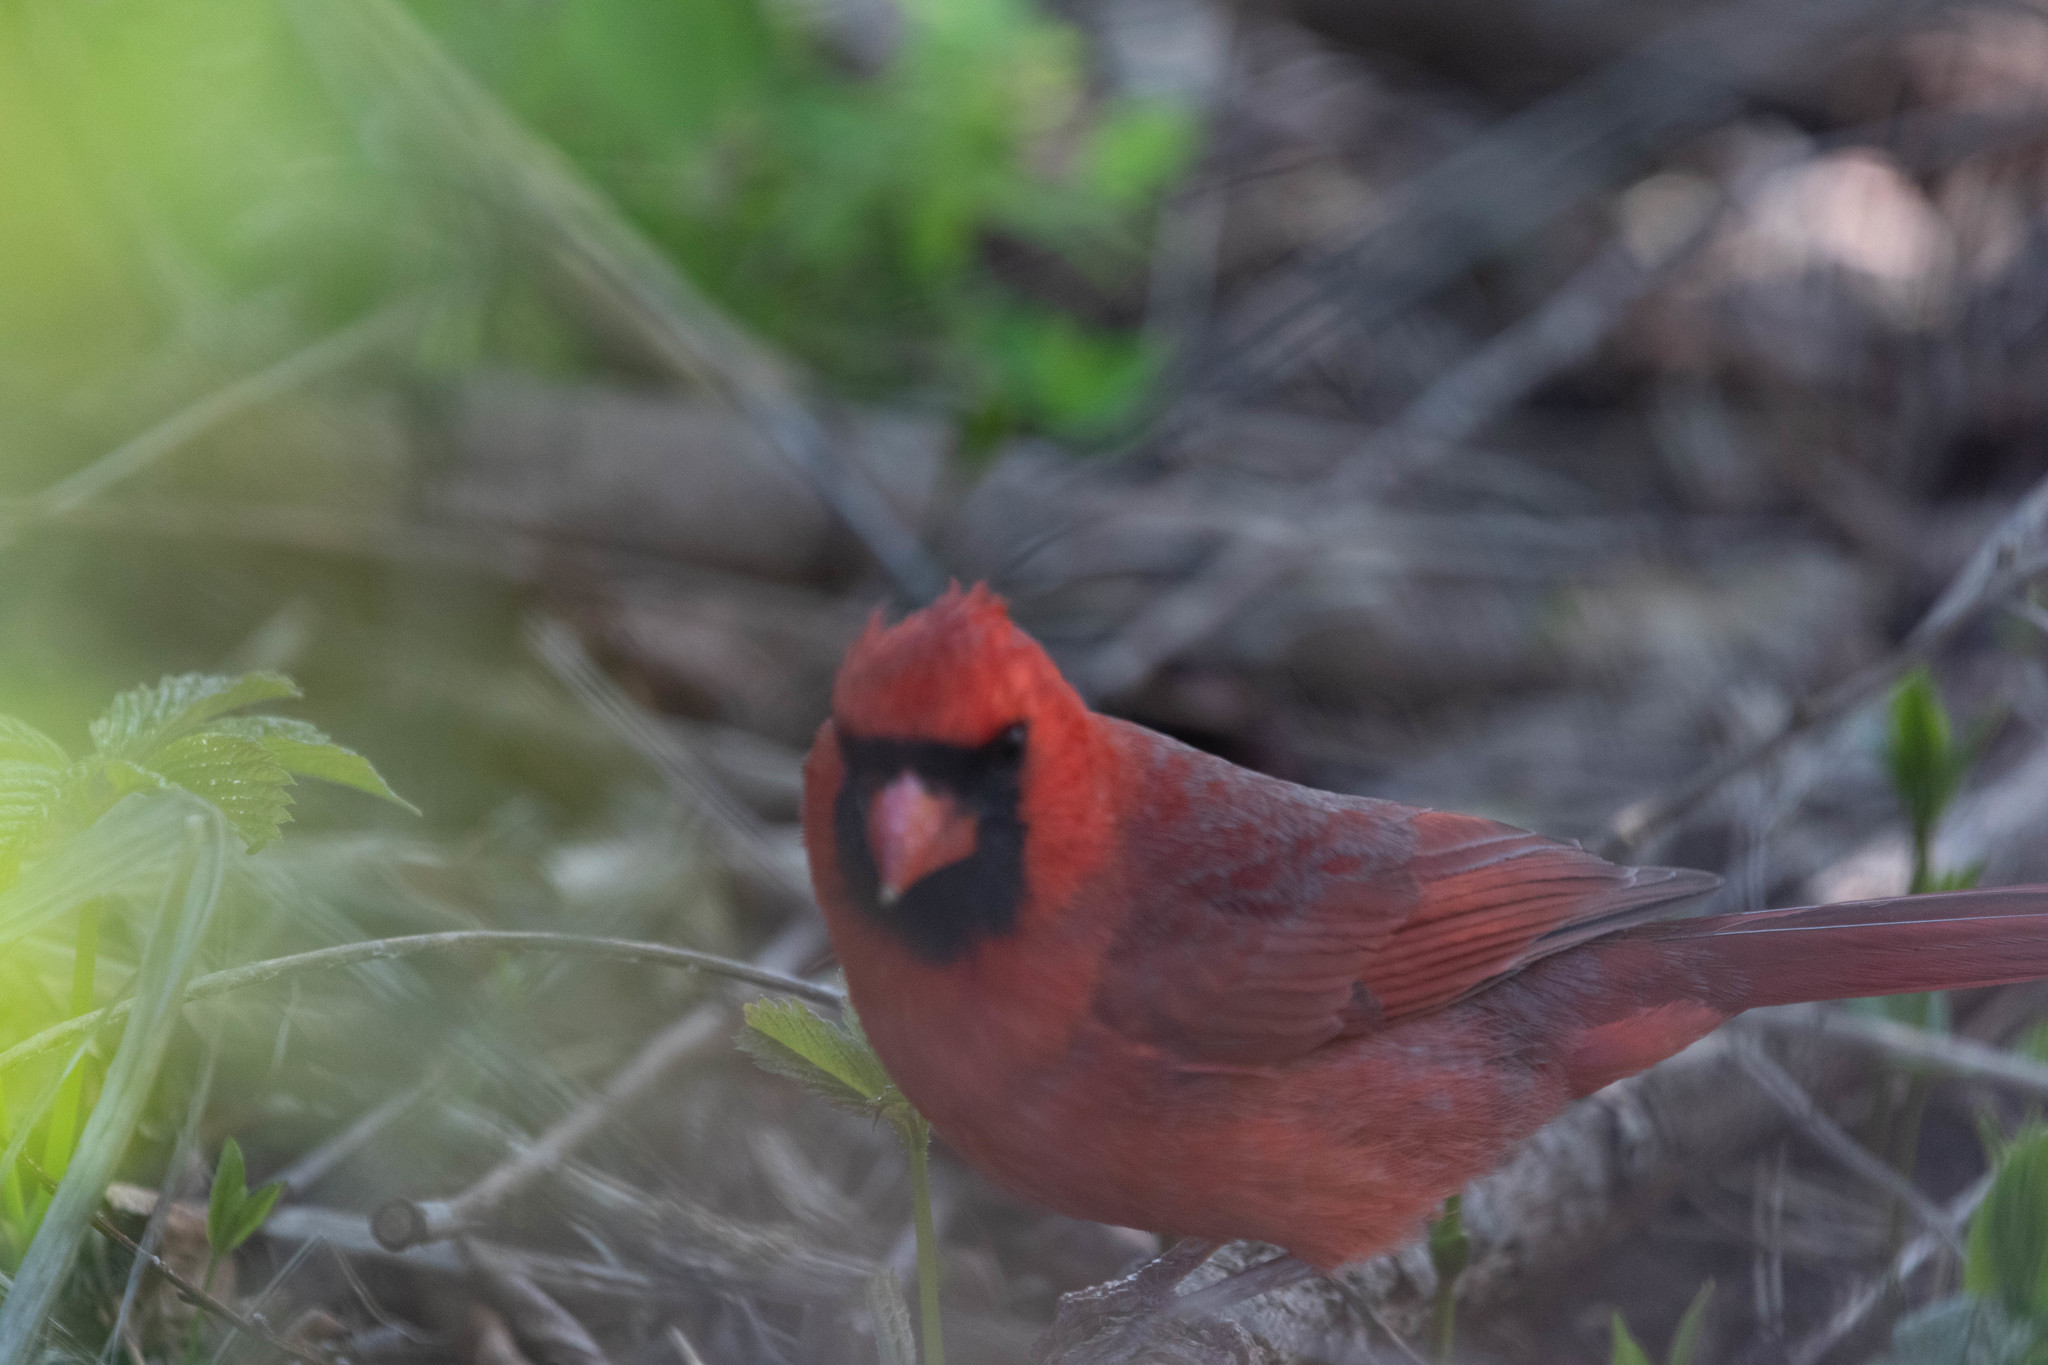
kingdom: Animalia
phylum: Chordata
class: Aves
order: Passeriformes
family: Cardinalidae
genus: Cardinalis
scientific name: Cardinalis cardinalis
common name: Northern cardinal
